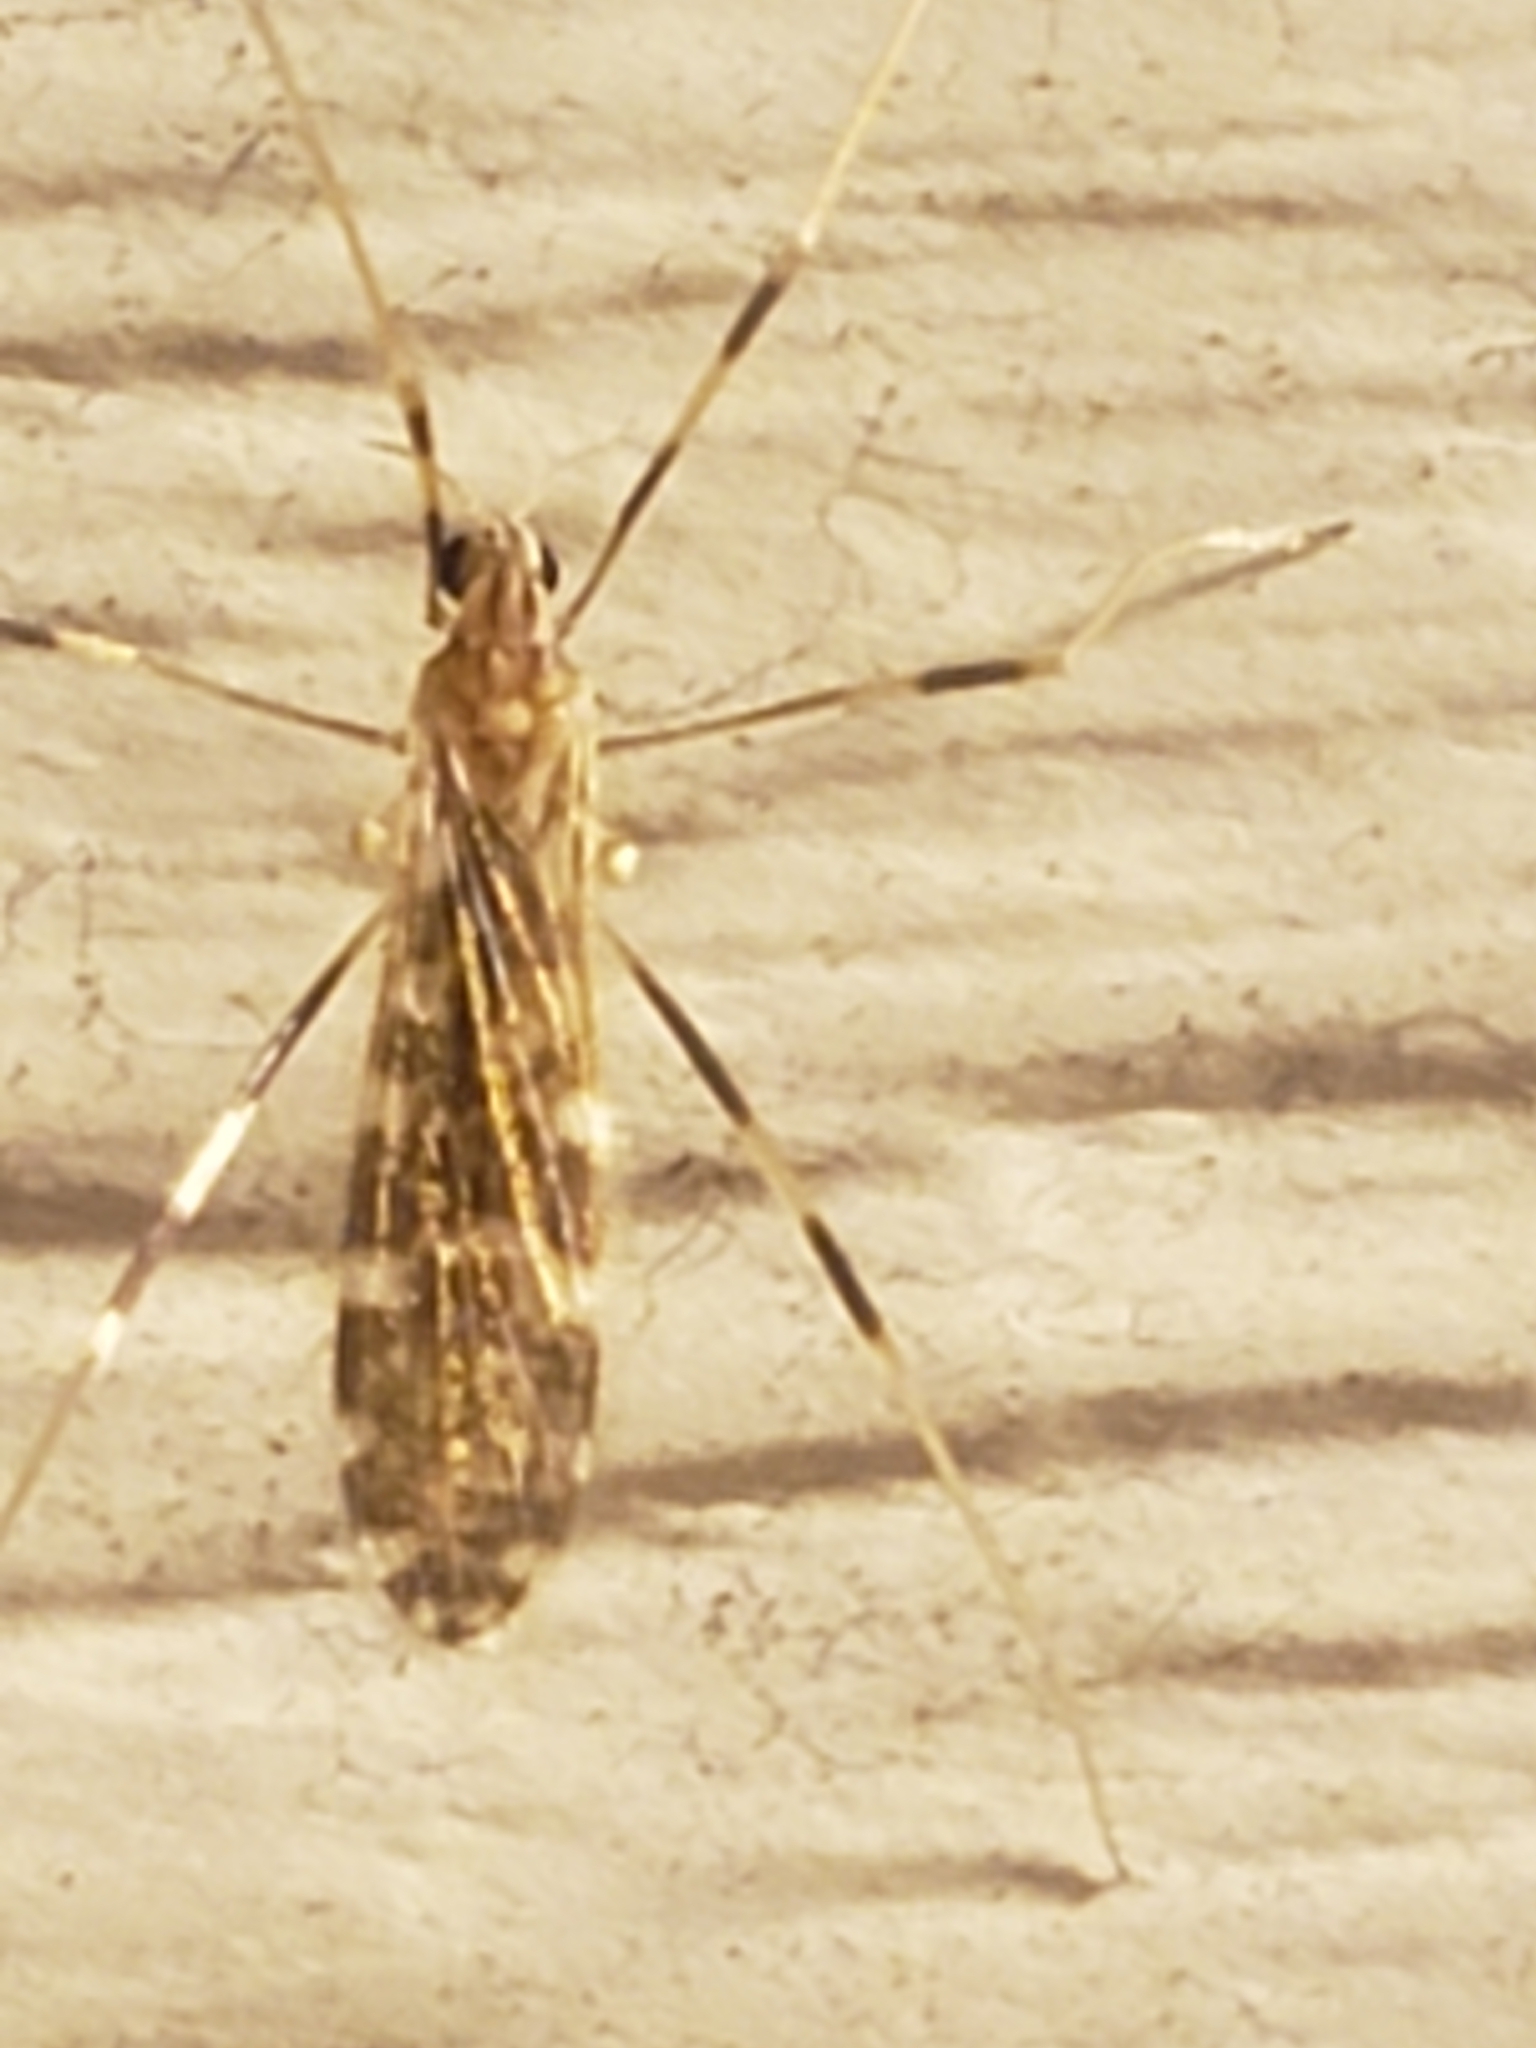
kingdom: Animalia
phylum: Arthropoda
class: Insecta
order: Diptera
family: Limoniidae
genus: Erioptera
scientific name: Erioptera caliptera
